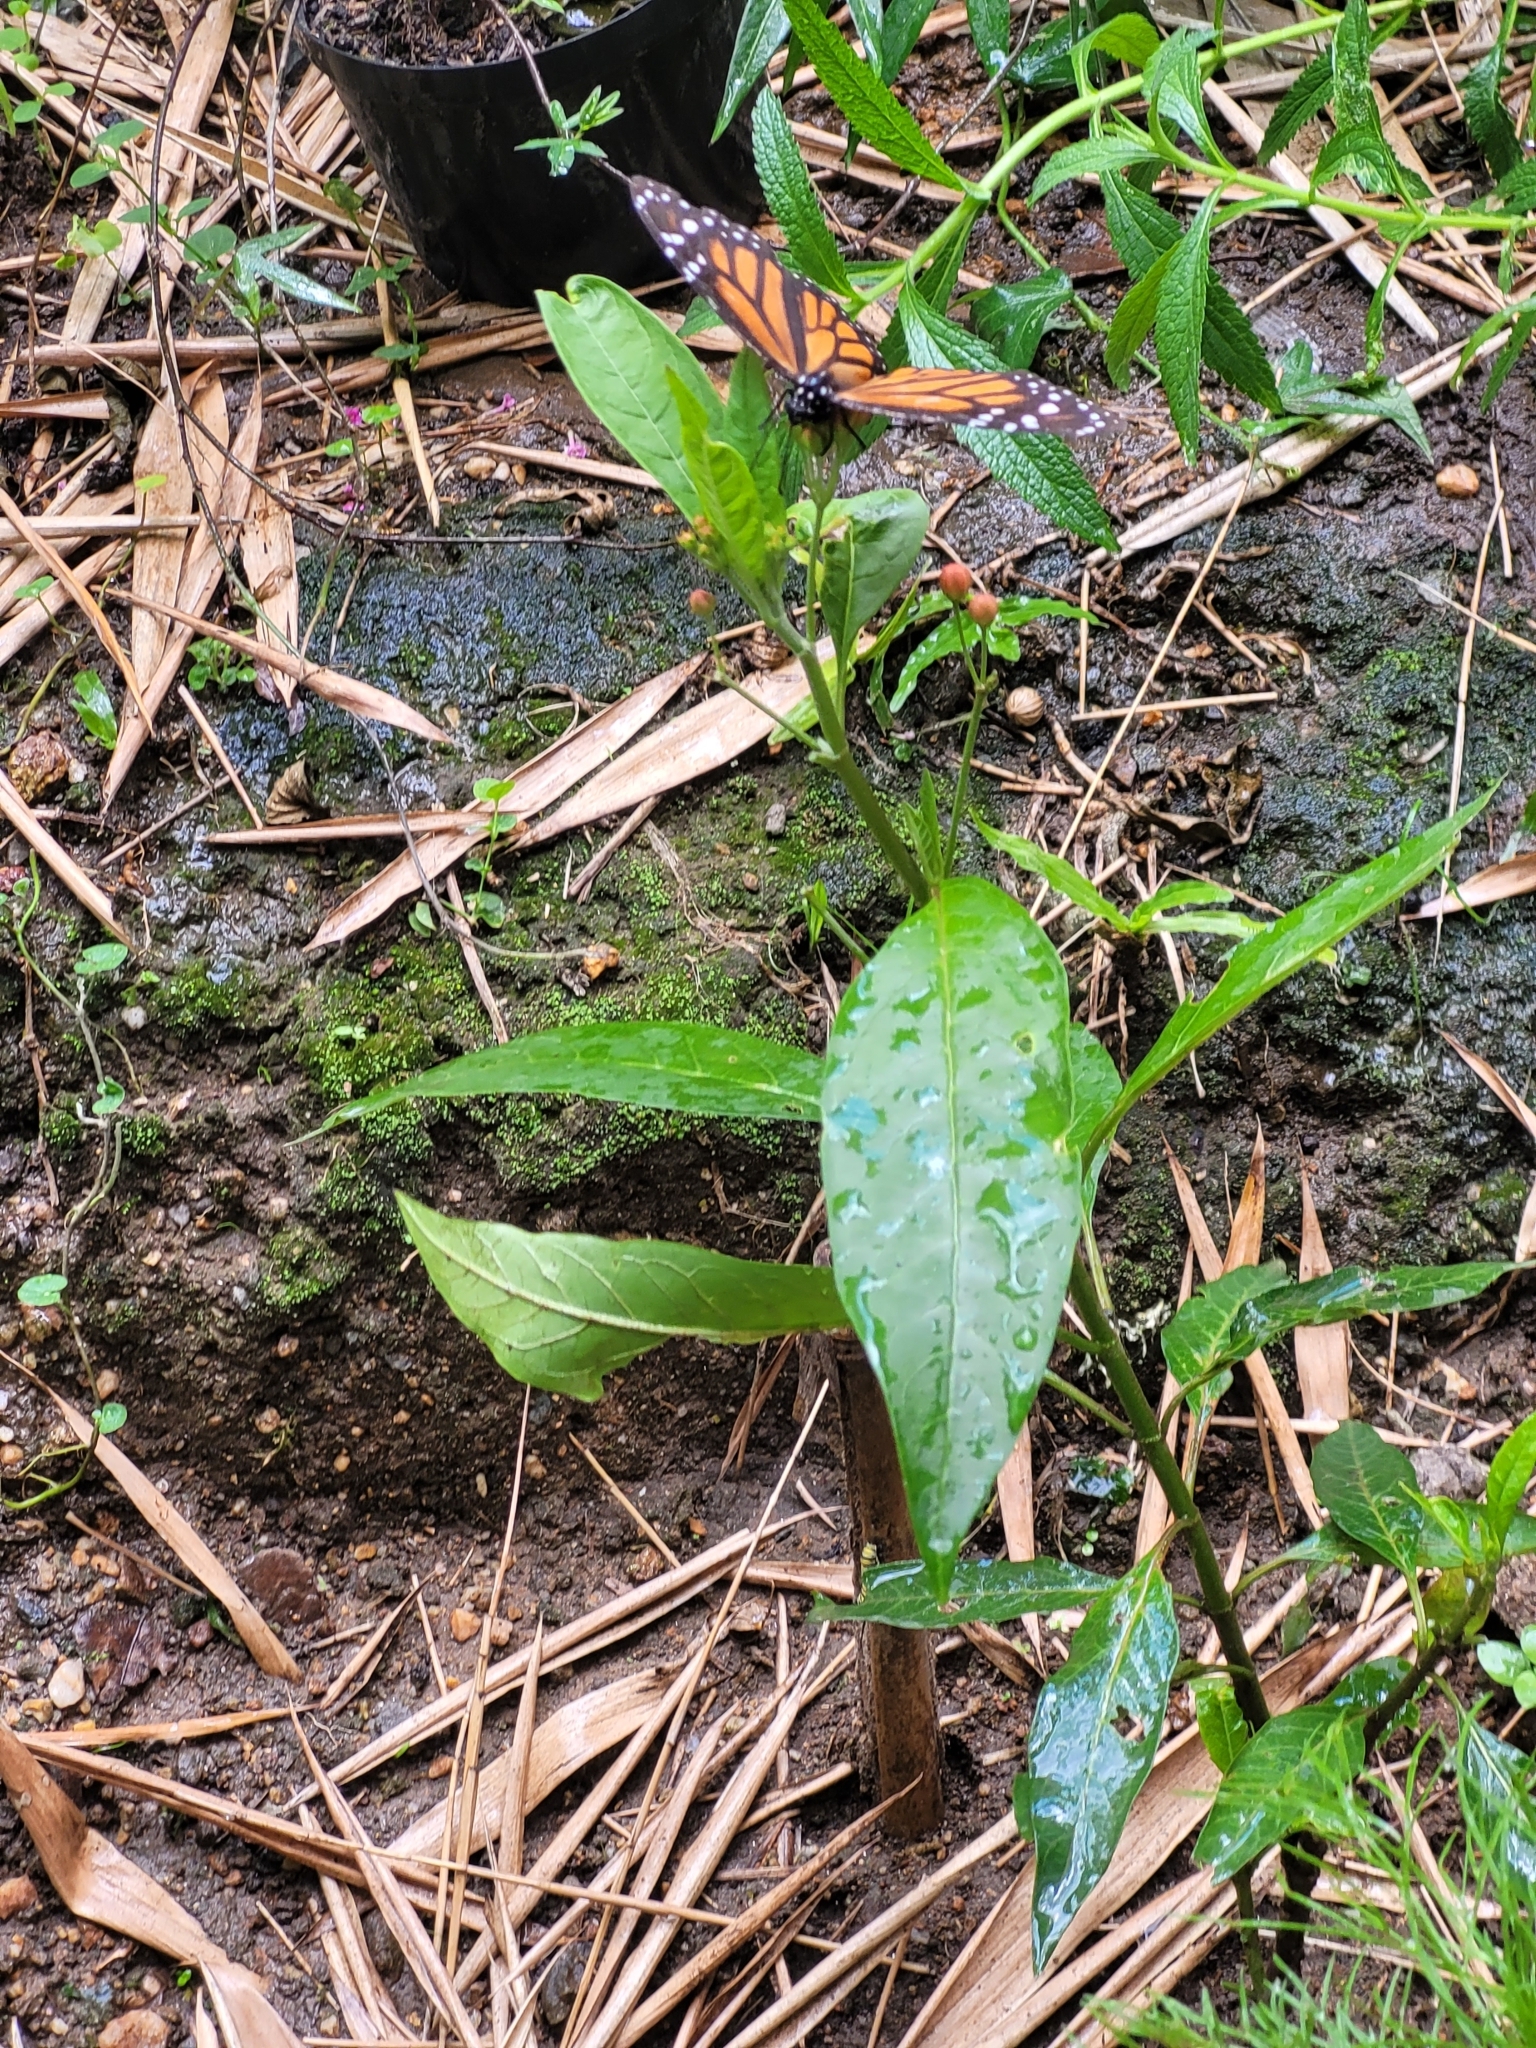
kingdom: Animalia
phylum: Arthropoda
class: Insecta
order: Lepidoptera
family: Nymphalidae
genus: Danaus
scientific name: Danaus plexippus
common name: Monarch
